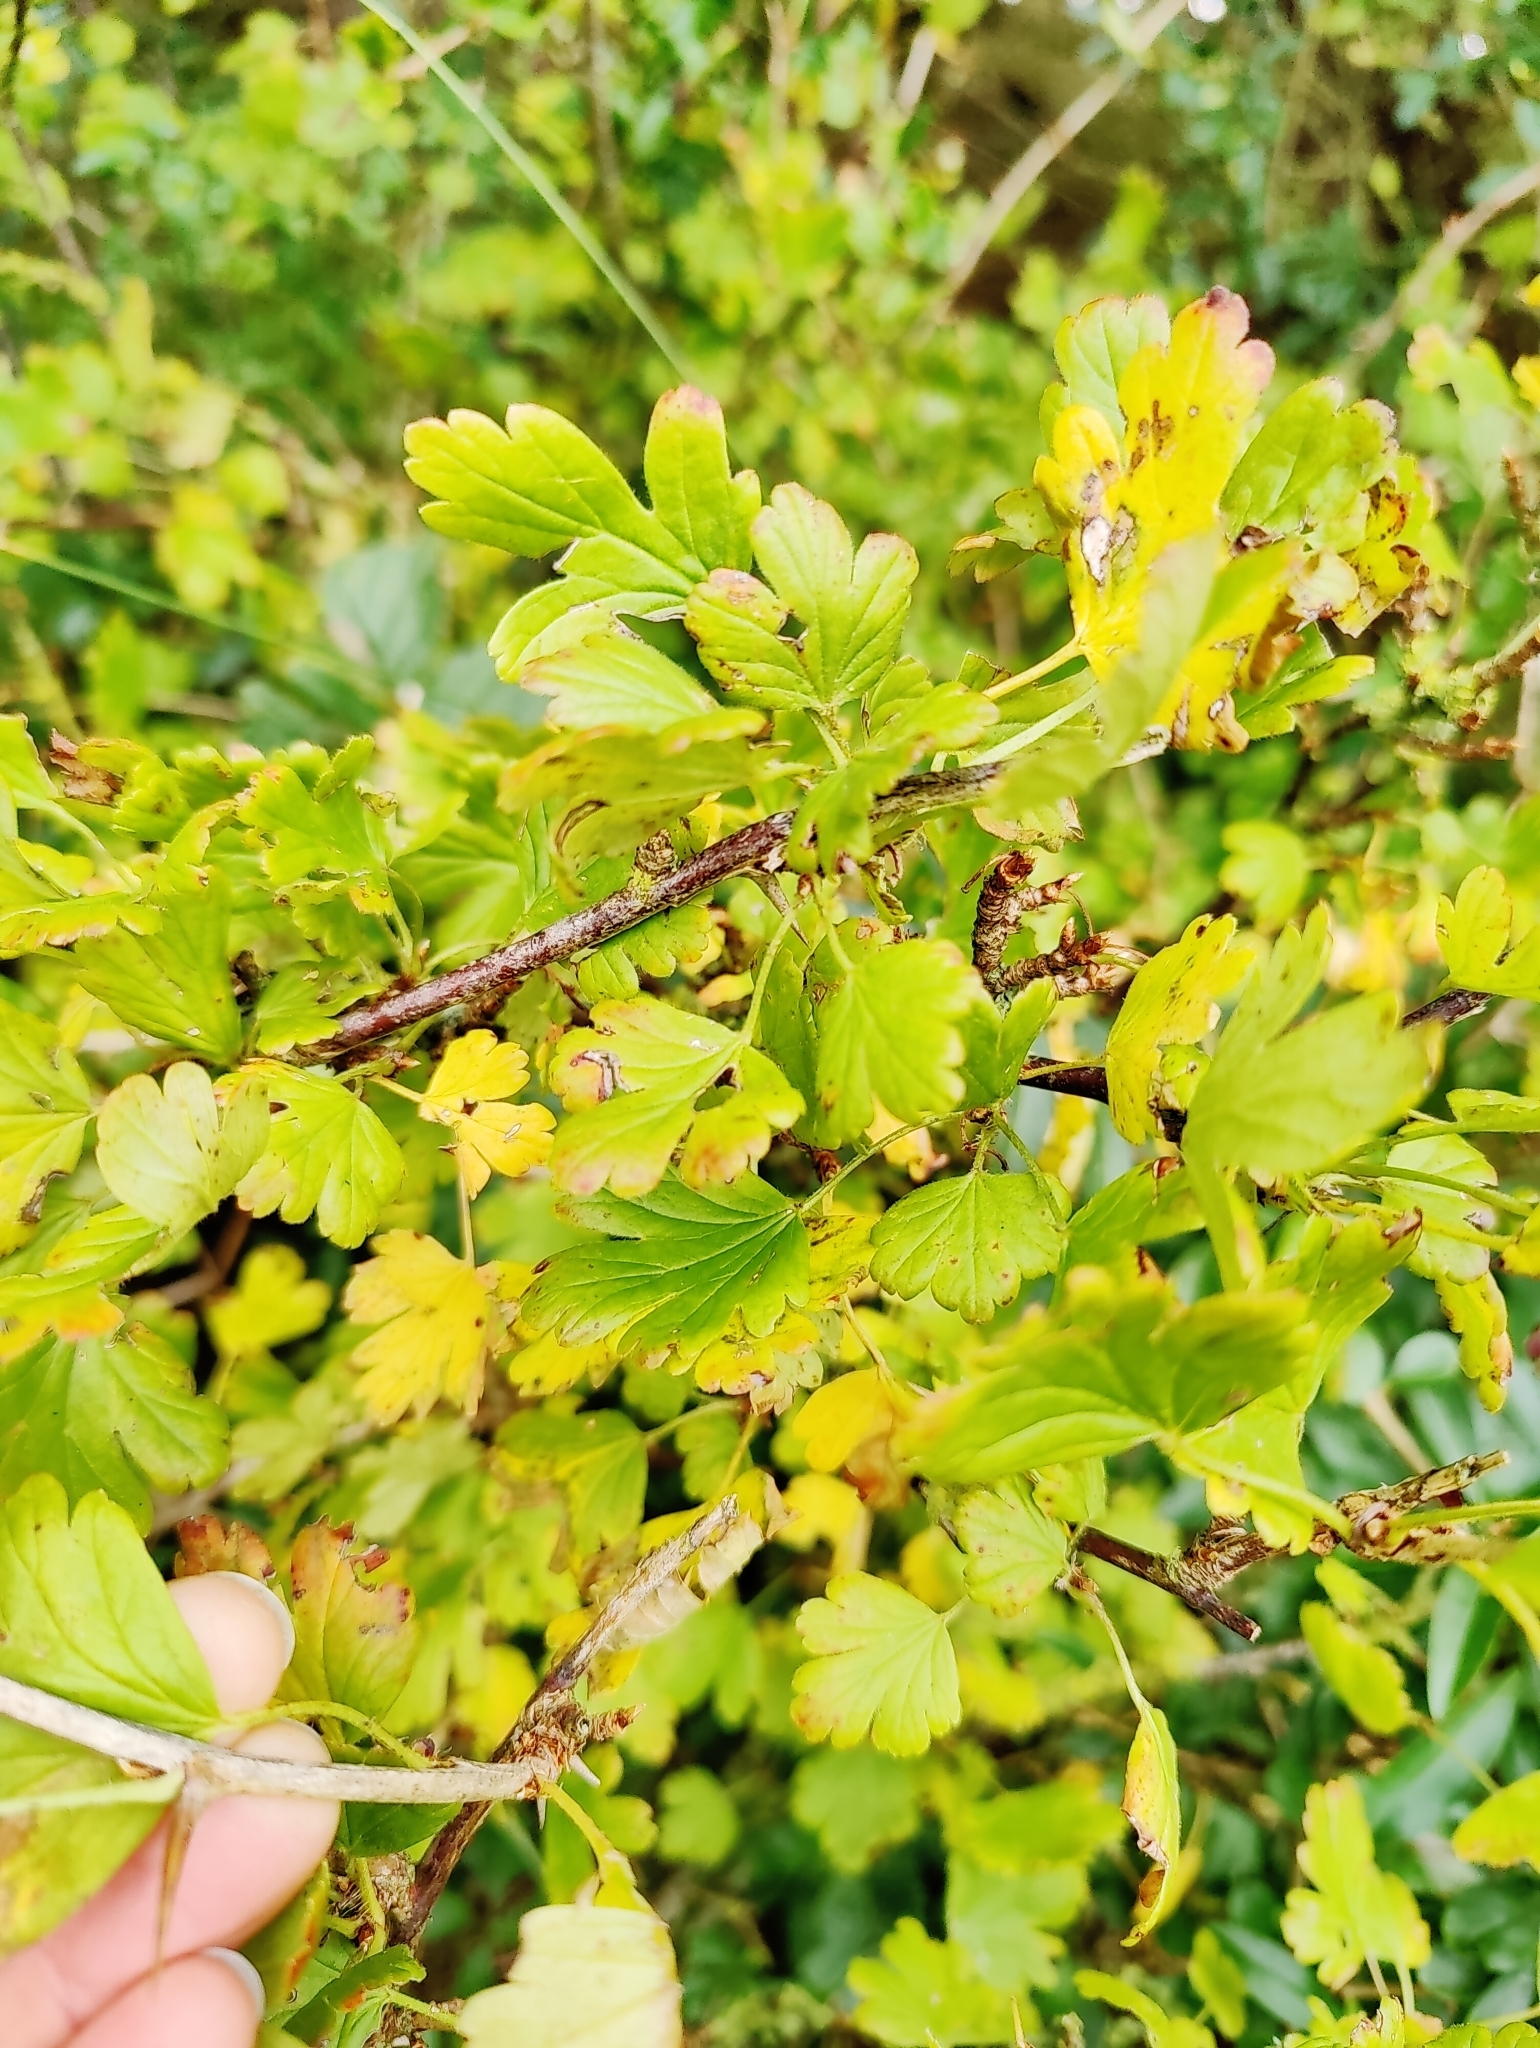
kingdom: Plantae
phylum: Tracheophyta
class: Magnoliopsida
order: Saxifragales
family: Grossulariaceae
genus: Ribes
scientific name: Ribes uva-crispa
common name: Gooseberry
